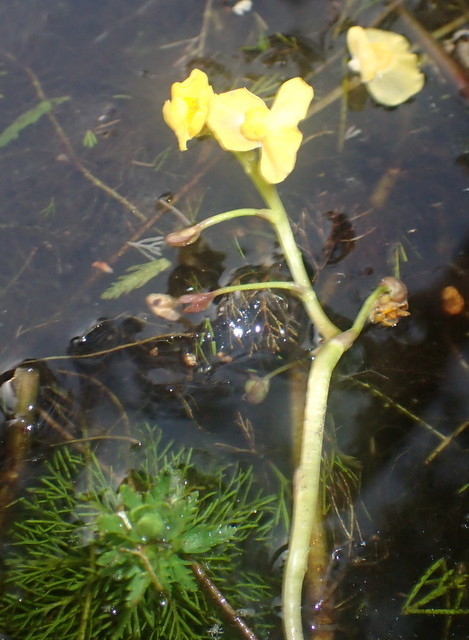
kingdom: Plantae
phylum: Tracheophyta
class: Magnoliopsida
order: Lamiales
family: Lentibulariaceae
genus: Utricularia
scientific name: Utricularia foliosa
